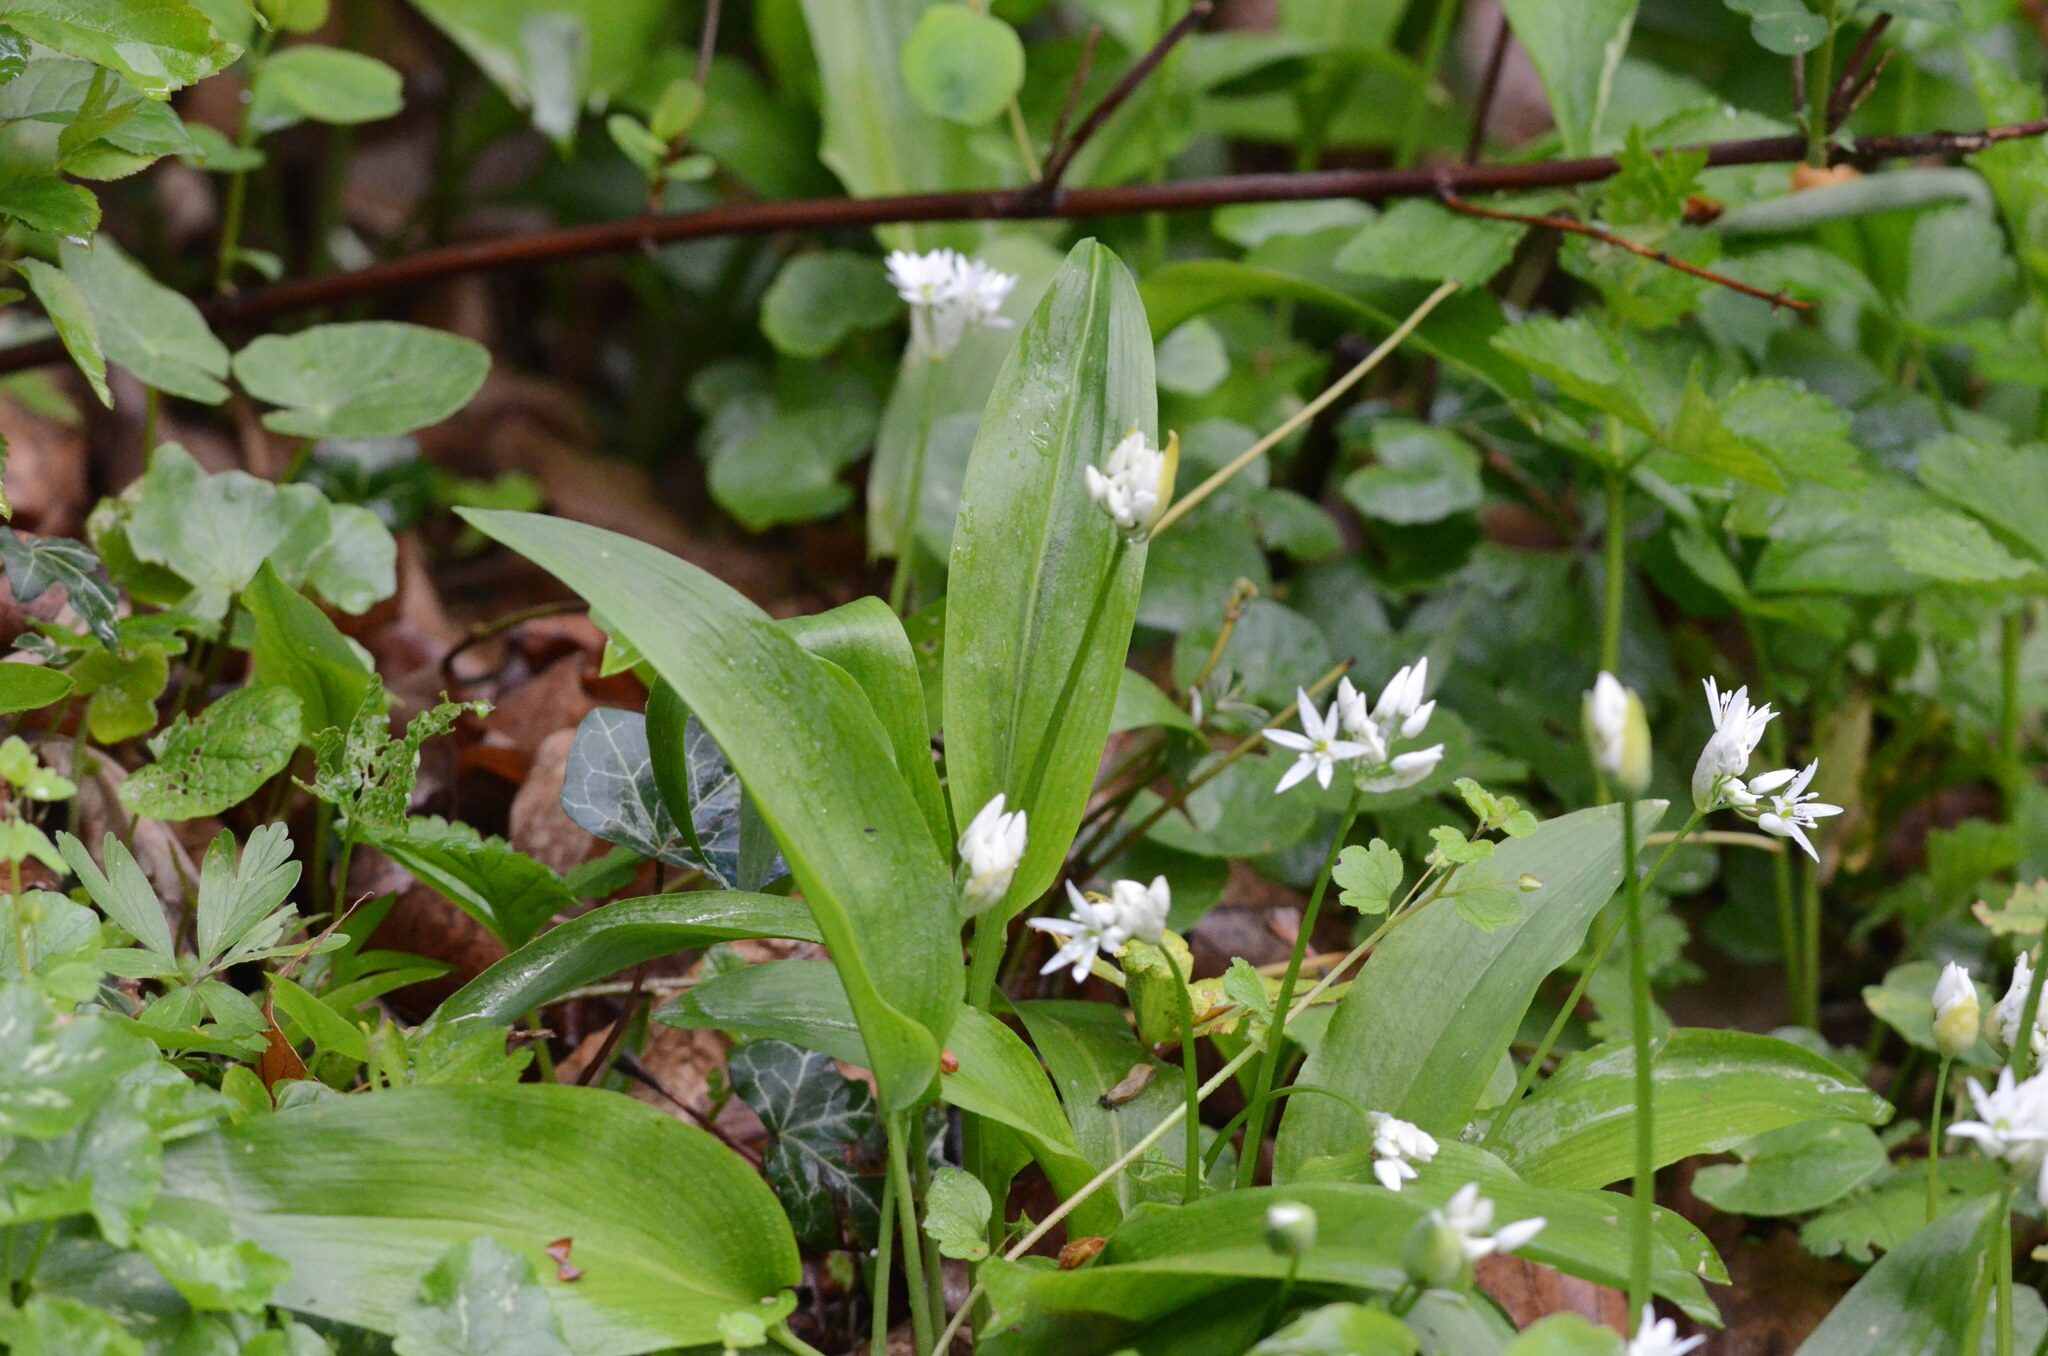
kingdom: Plantae
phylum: Tracheophyta
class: Liliopsida
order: Asparagales
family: Amaryllidaceae
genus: Allium
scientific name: Allium ursinum
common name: Ramsons
